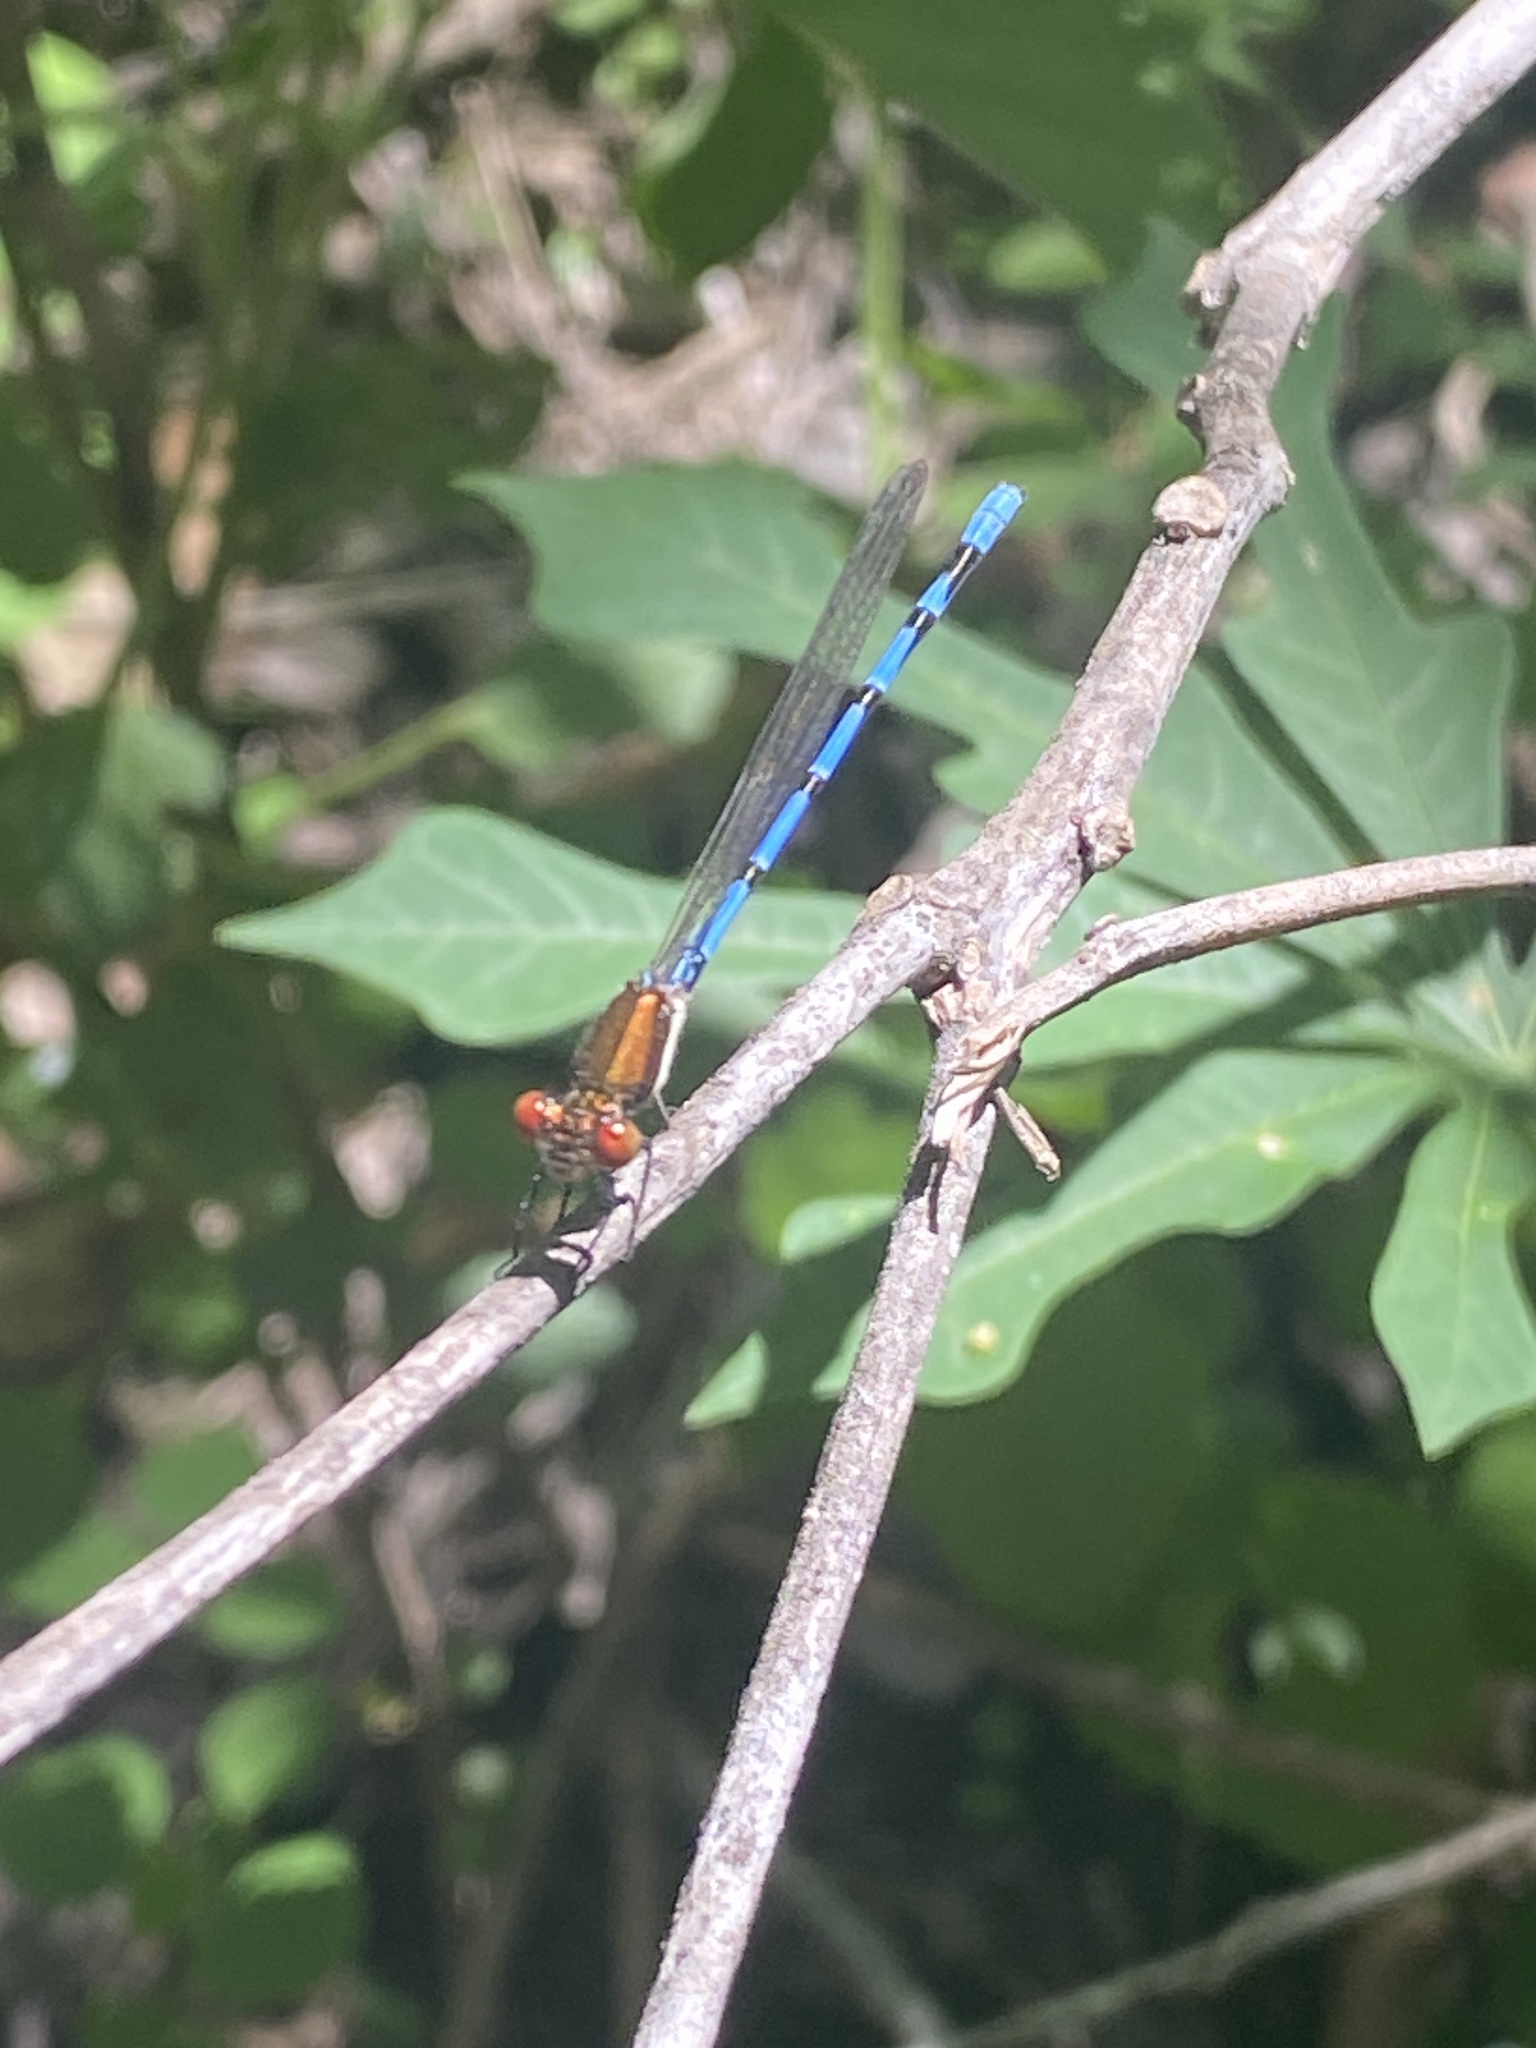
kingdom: Animalia
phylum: Arthropoda
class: Insecta
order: Odonata
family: Coenagrionidae
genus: Argia
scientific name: Argia joergenseni
